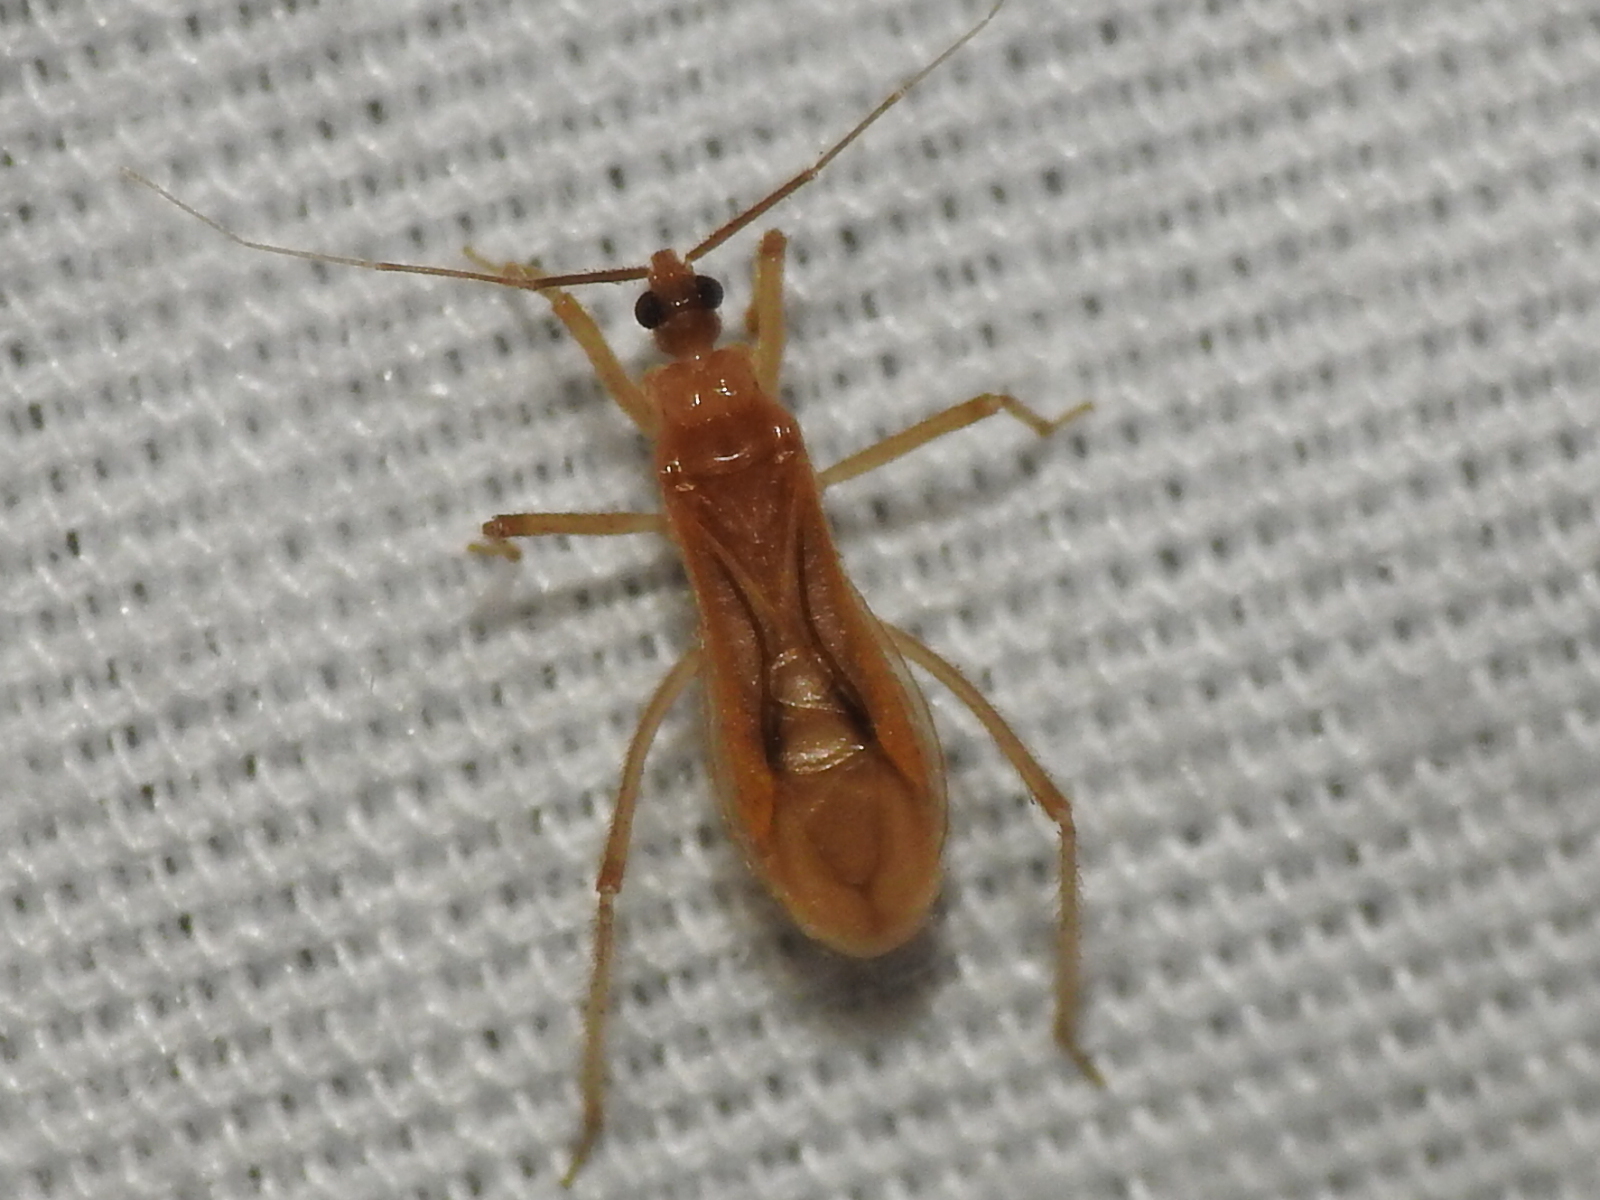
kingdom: Animalia
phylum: Arthropoda
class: Insecta
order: Hemiptera
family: Reduviidae
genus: Oncerotrachelus
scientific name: Oncerotrachelus pallidus
